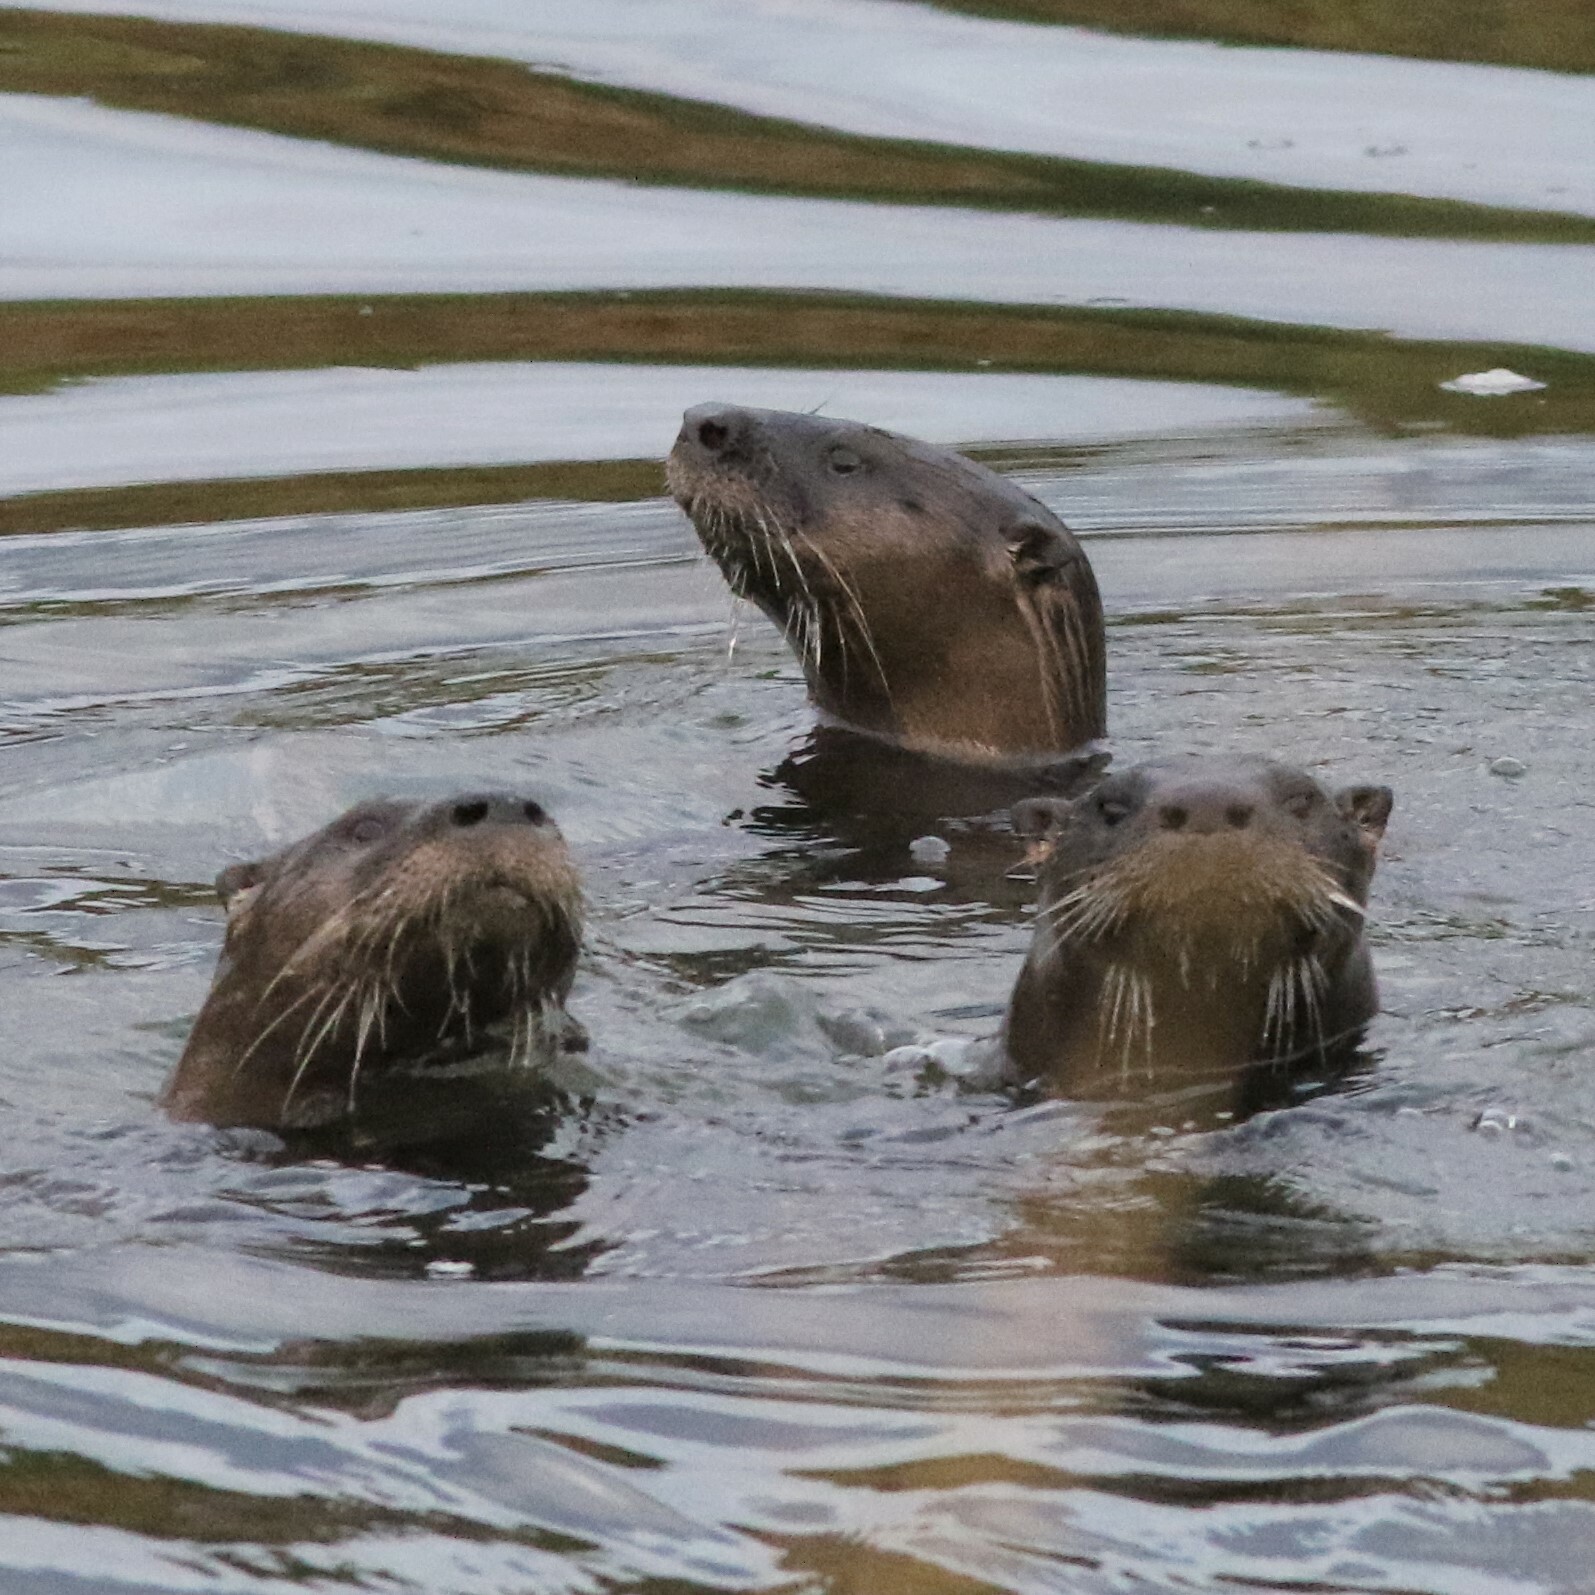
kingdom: Animalia
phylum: Chordata
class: Mammalia
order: Carnivora
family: Mustelidae
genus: Lontra
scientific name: Lontra canadensis
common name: North american river otter
